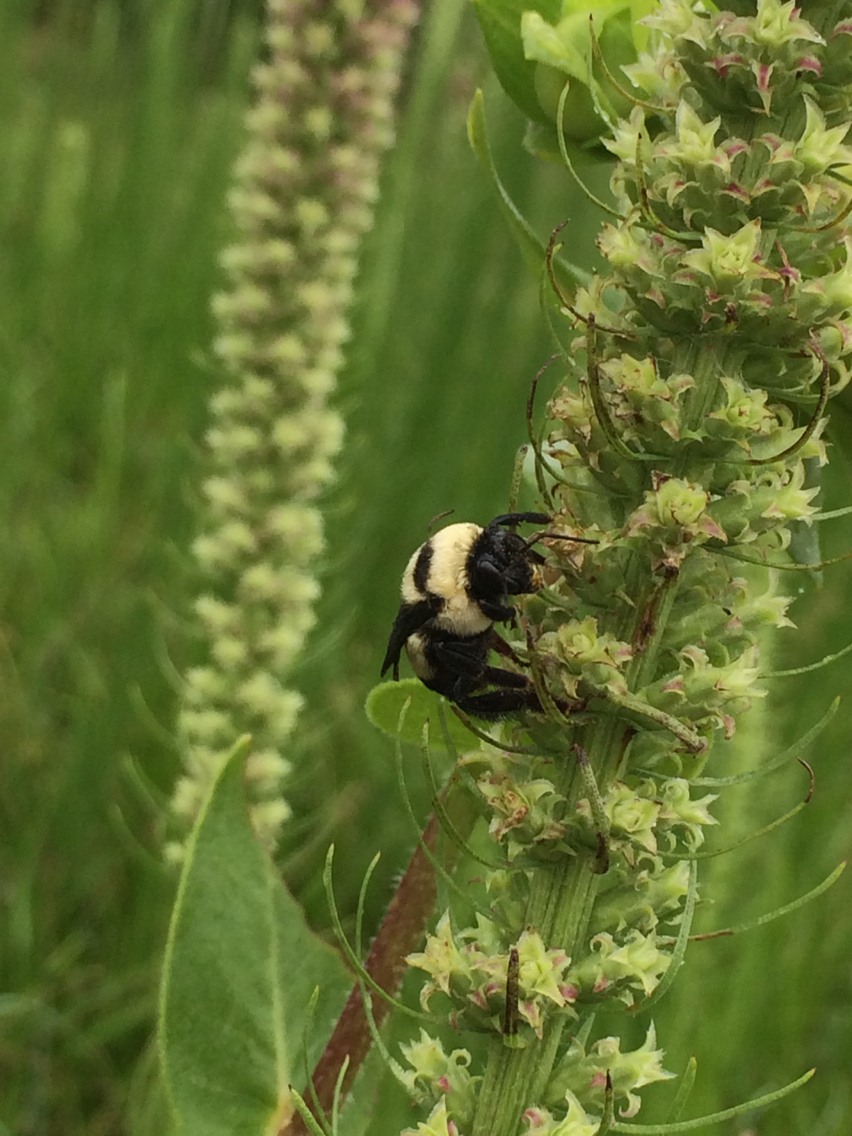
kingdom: Animalia
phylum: Arthropoda
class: Insecta
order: Hymenoptera
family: Apidae
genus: Bombus
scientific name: Bombus fraternus
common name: Southern plains bumble bee
